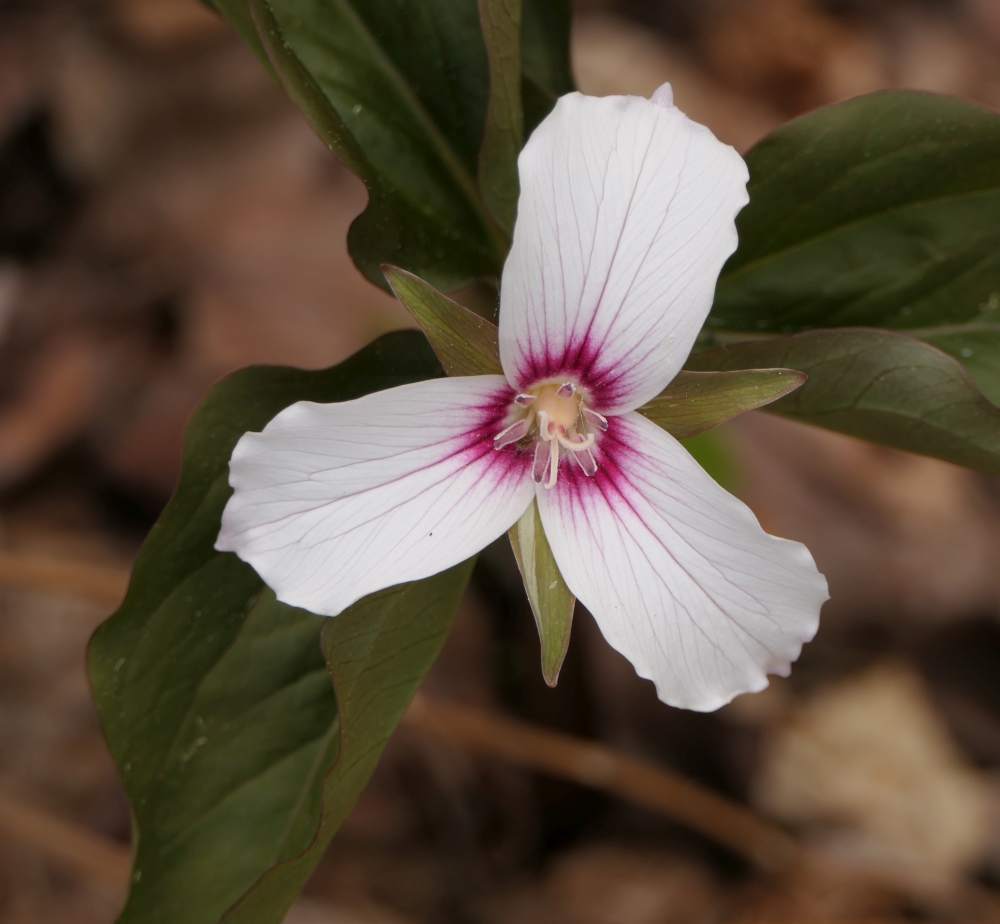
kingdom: Plantae
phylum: Tracheophyta
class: Liliopsida
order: Liliales
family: Melanthiaceae
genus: Trillium
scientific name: Trillium undulatum
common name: Paint trillium
